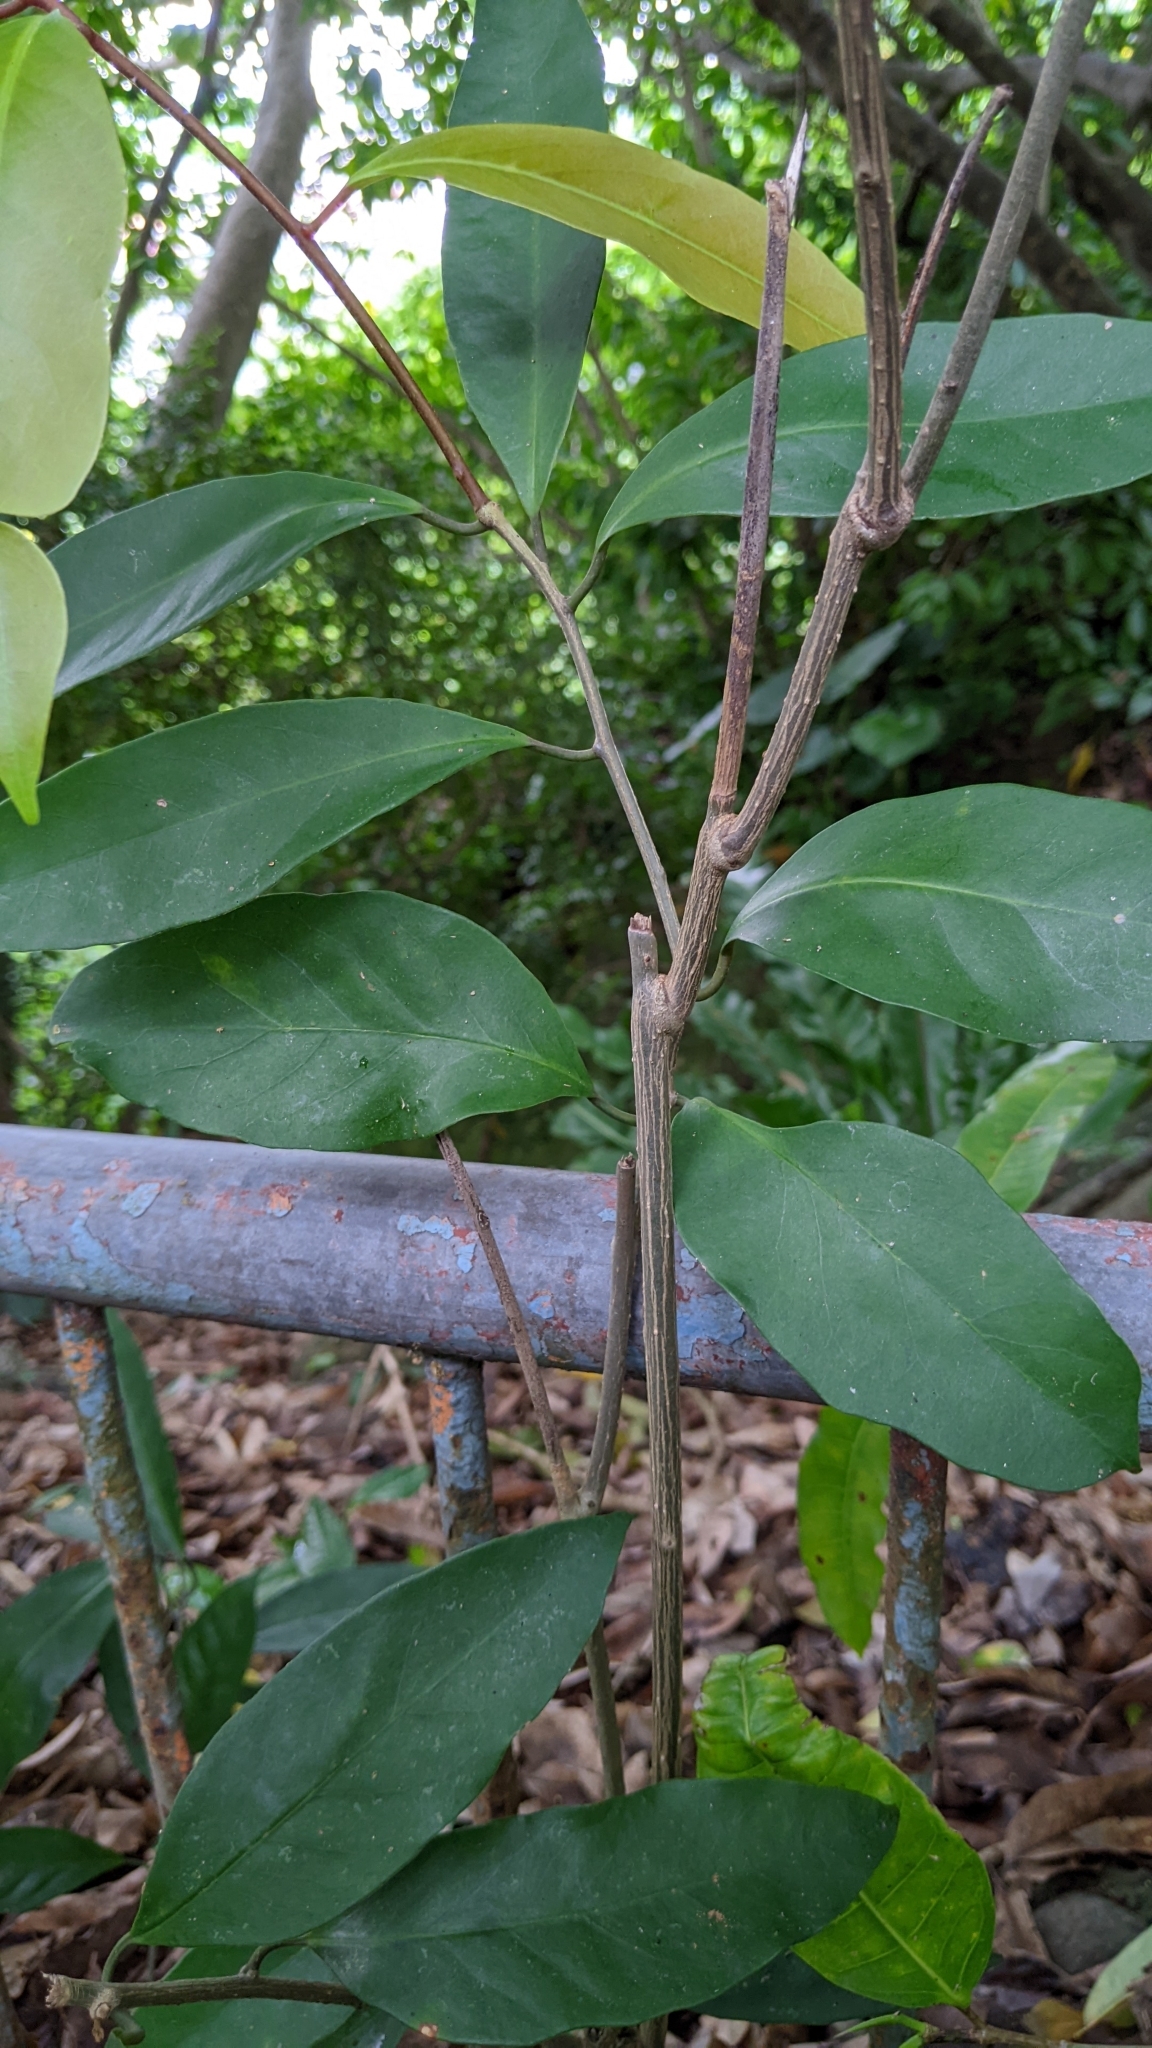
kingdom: Plantae
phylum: Tracheophyta
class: Magnoliopsida
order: Solanales
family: Convolvulaceae
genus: Erycibe
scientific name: Erycibe henryi
